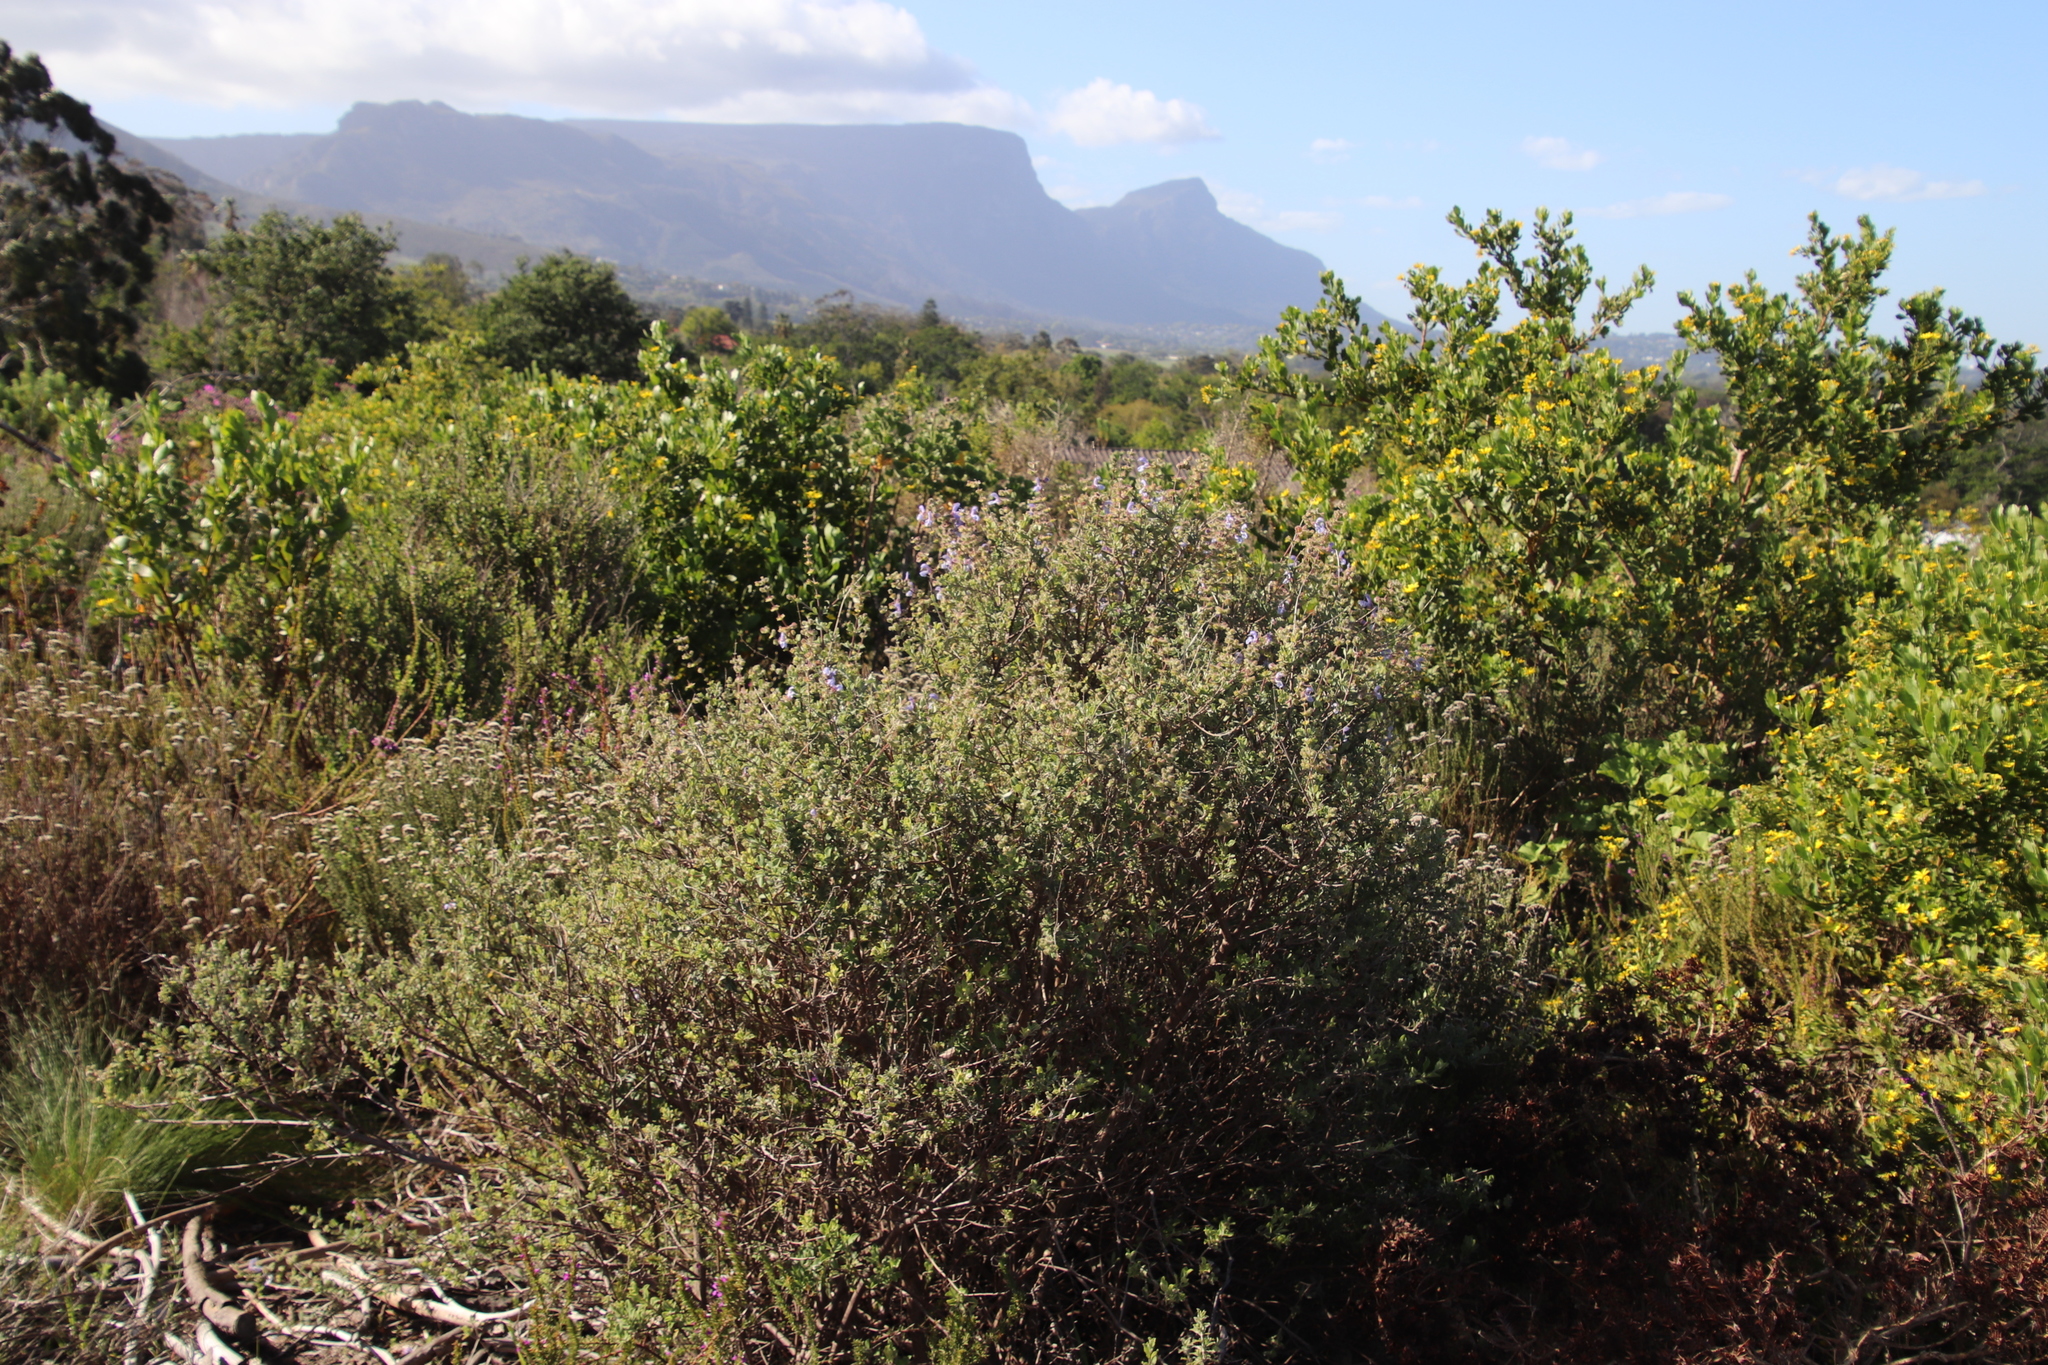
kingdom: Plantae
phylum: Tracheophyta
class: Magnoliopsida
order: Lamiales
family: Lamiaceae
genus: Salvia
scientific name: Salvia africana
